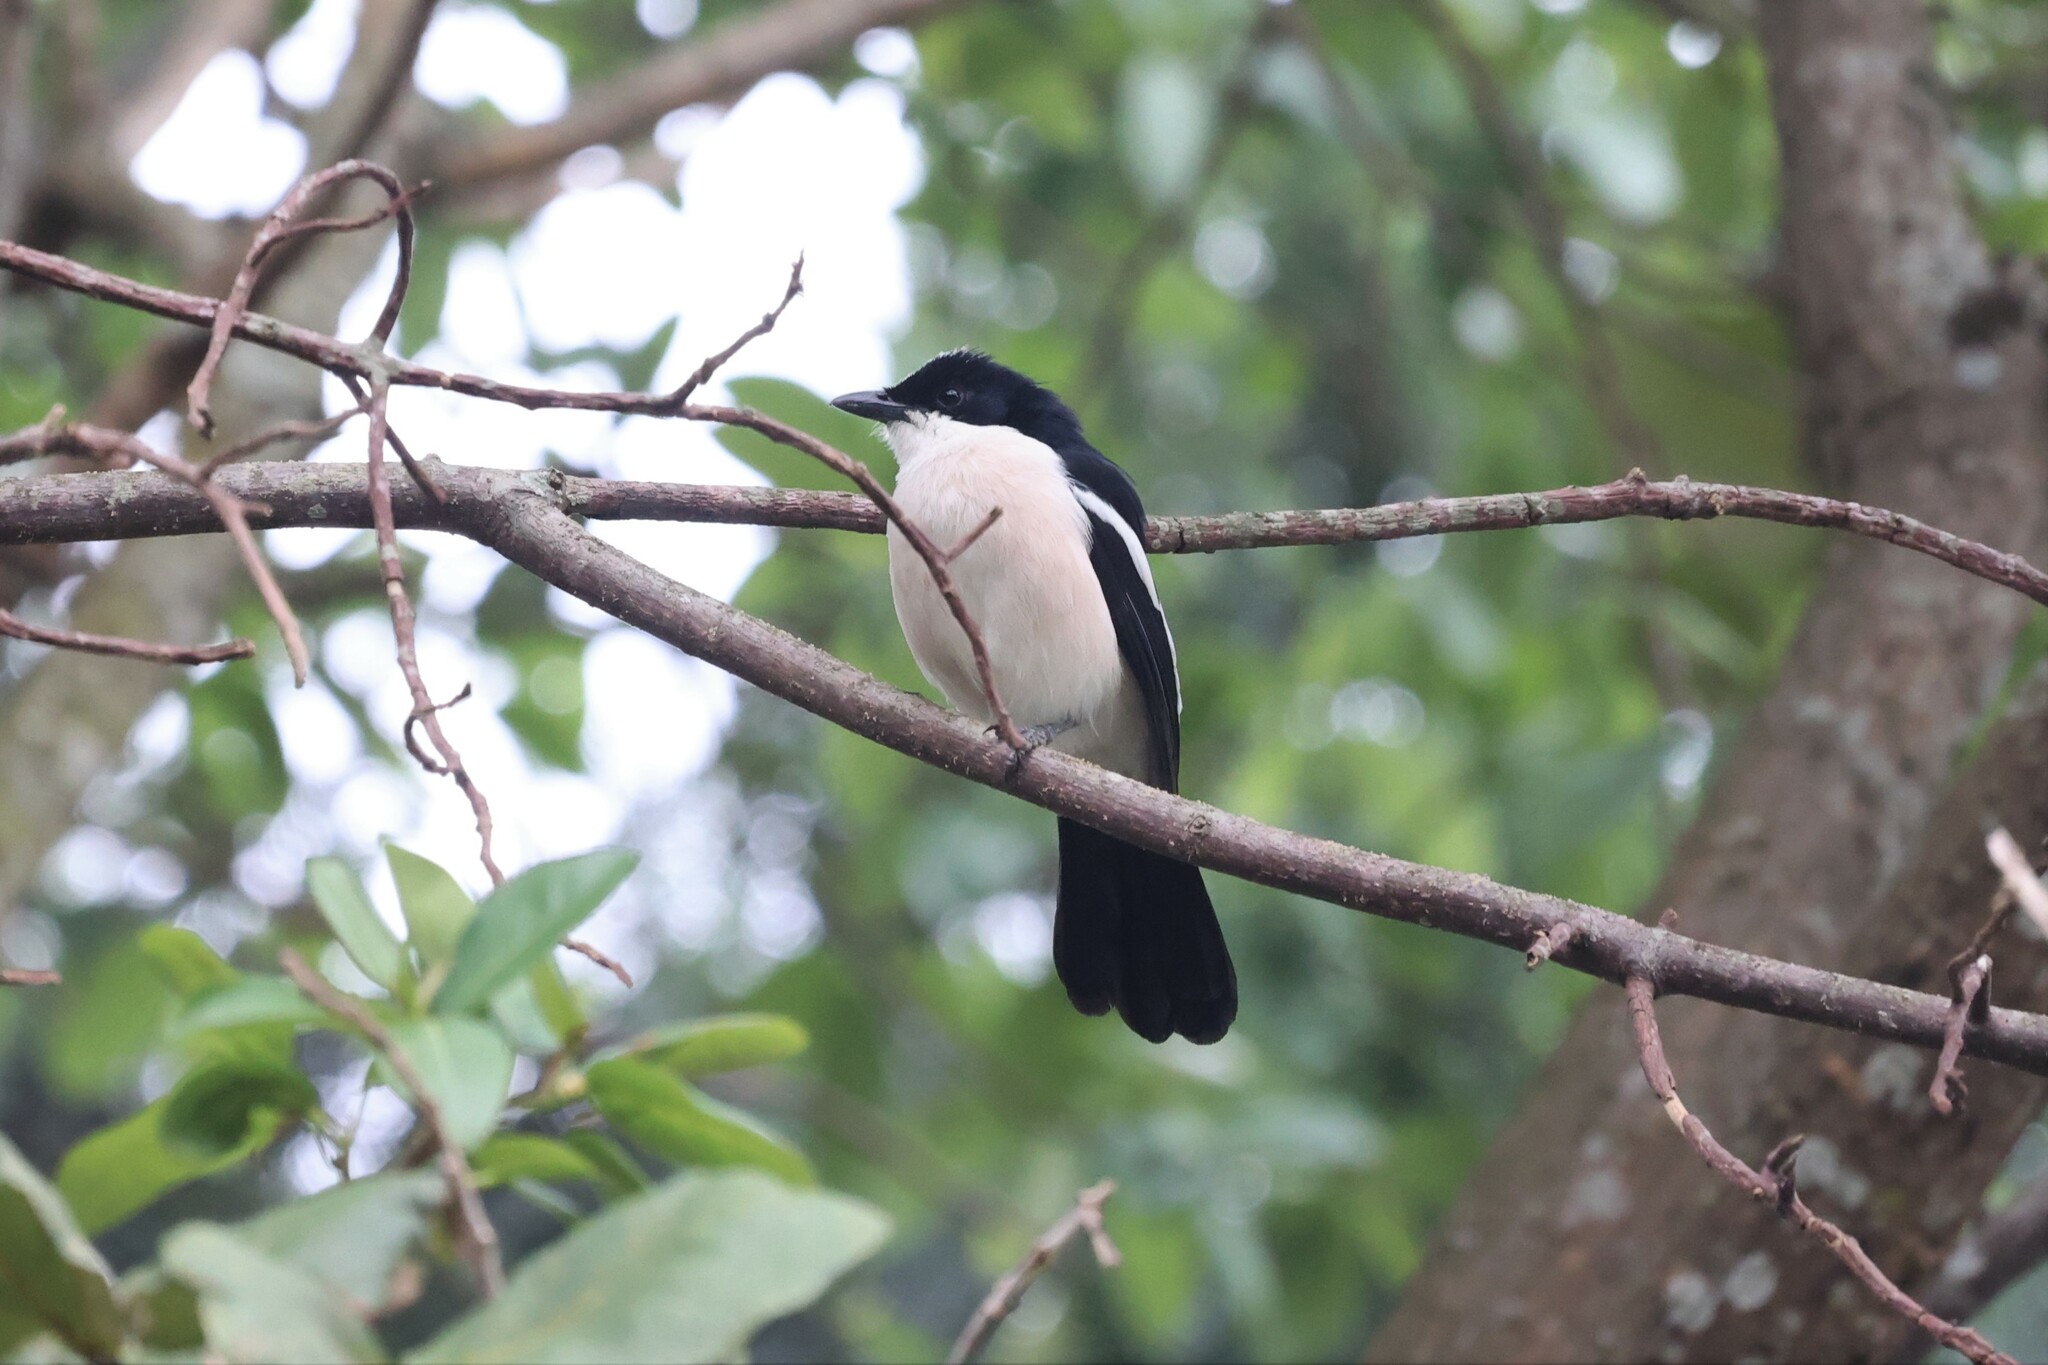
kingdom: Animalia
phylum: Chordata
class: Aves
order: Passeriformes
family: Malaconotidae
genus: Laniarius
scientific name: Laniarius major
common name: Tropical boubou
